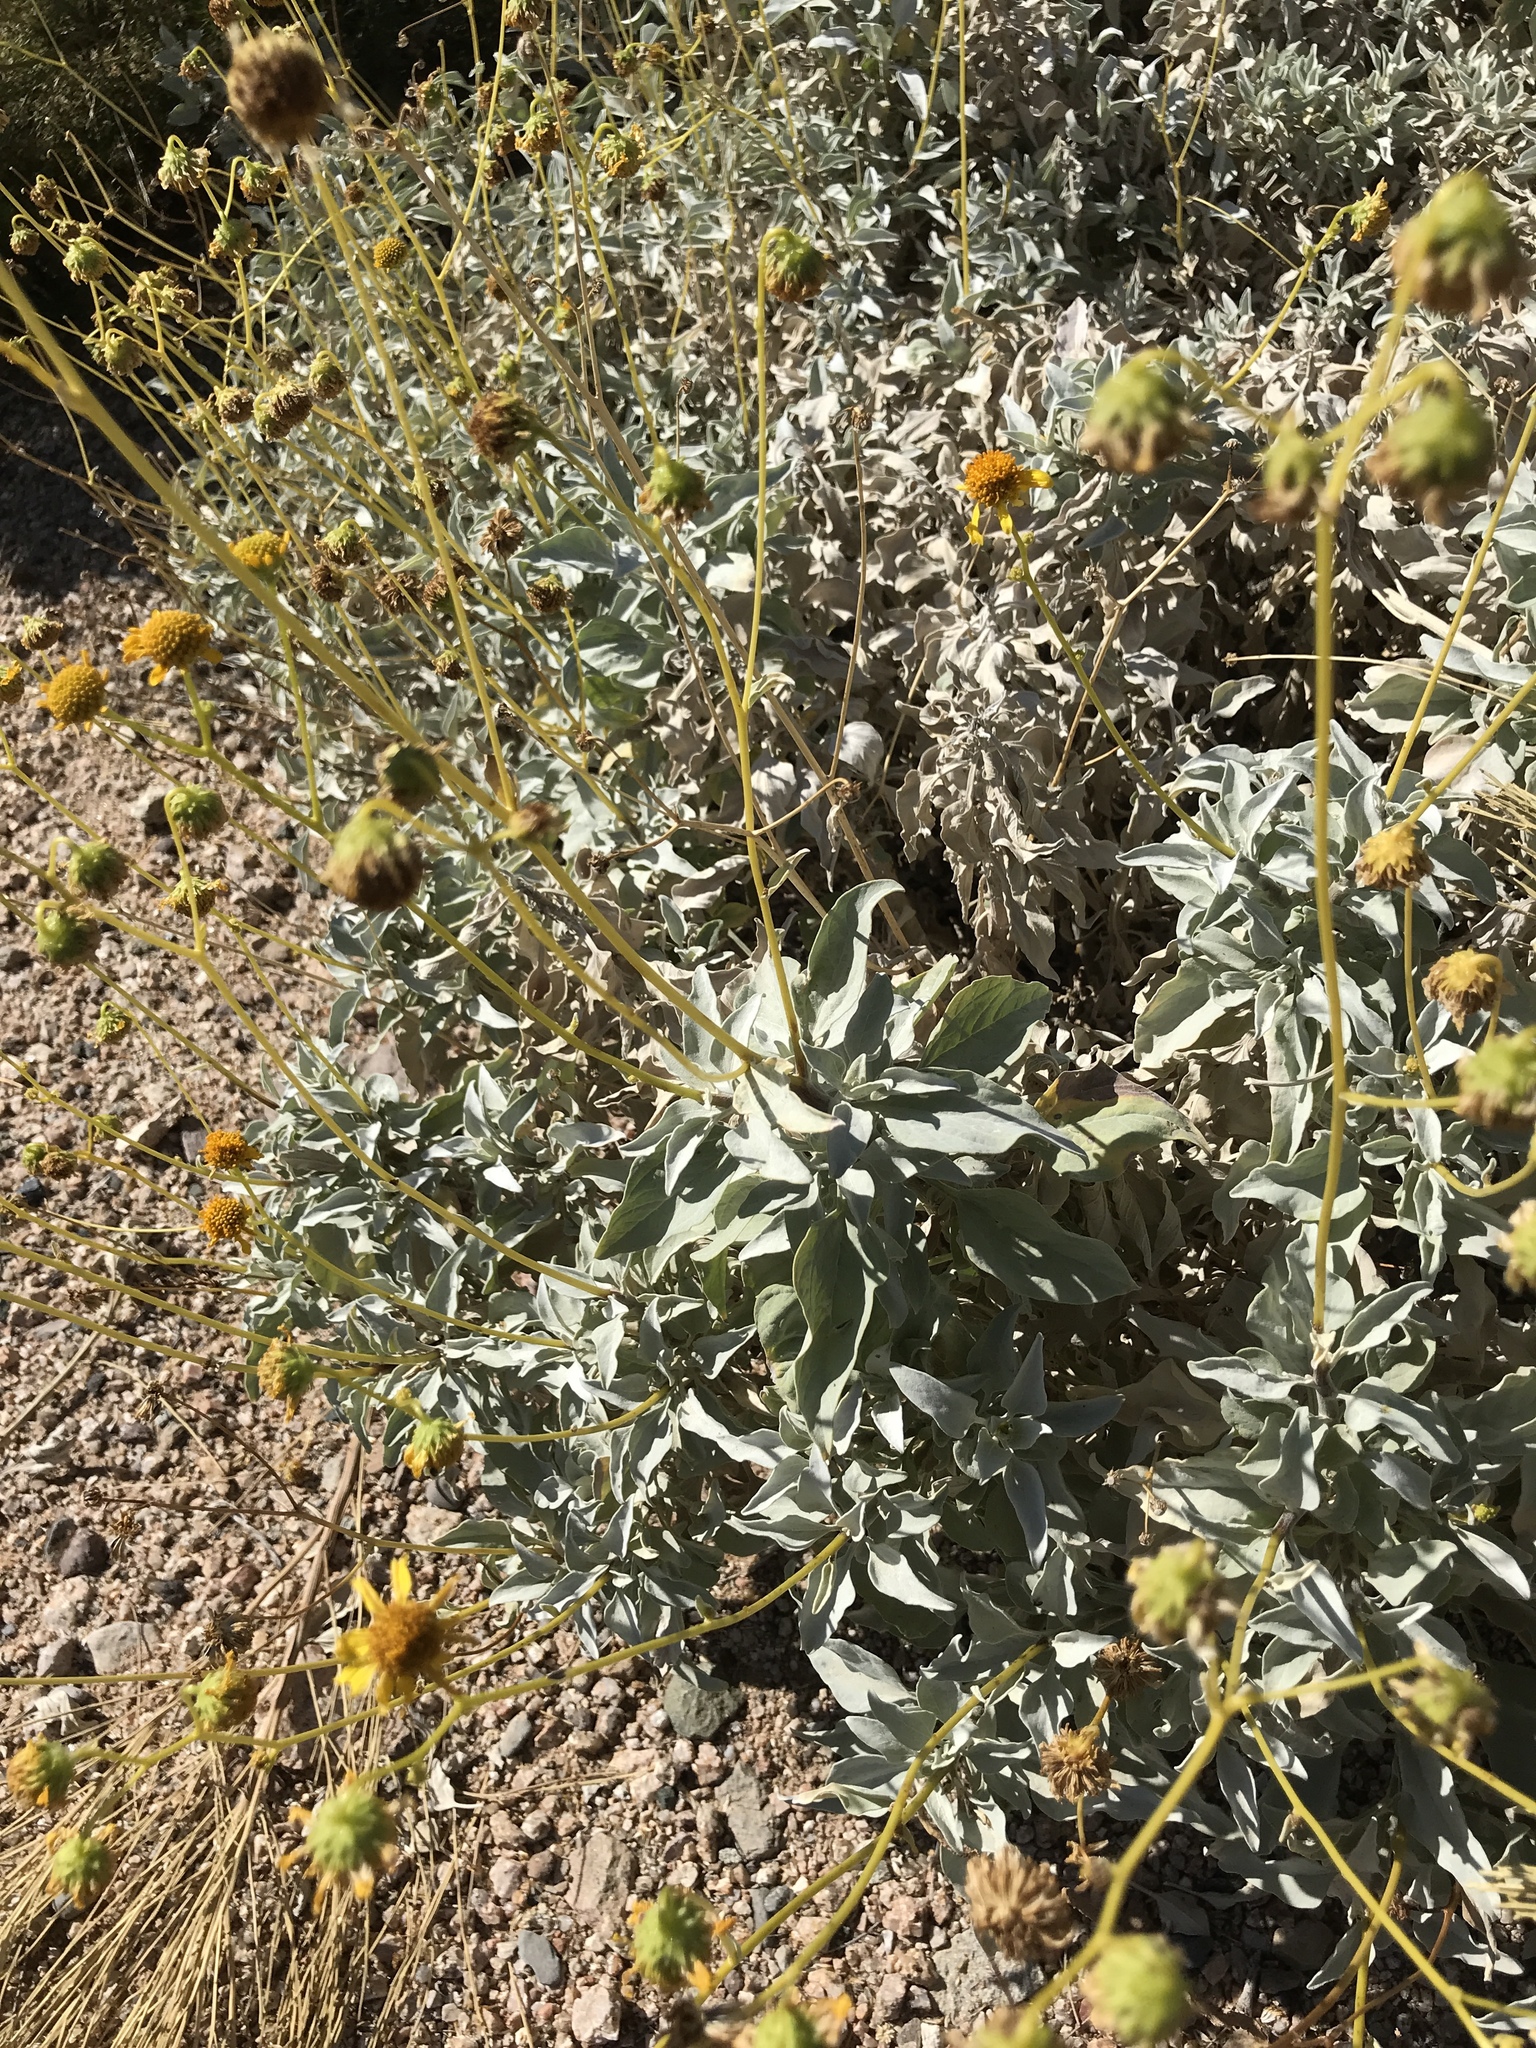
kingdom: Plantae
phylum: Tracheophyta
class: Magnoliopsida
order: Asterales
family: Asteraceae
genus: Encelia
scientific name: Encelia farinosa
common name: Brittlebush
